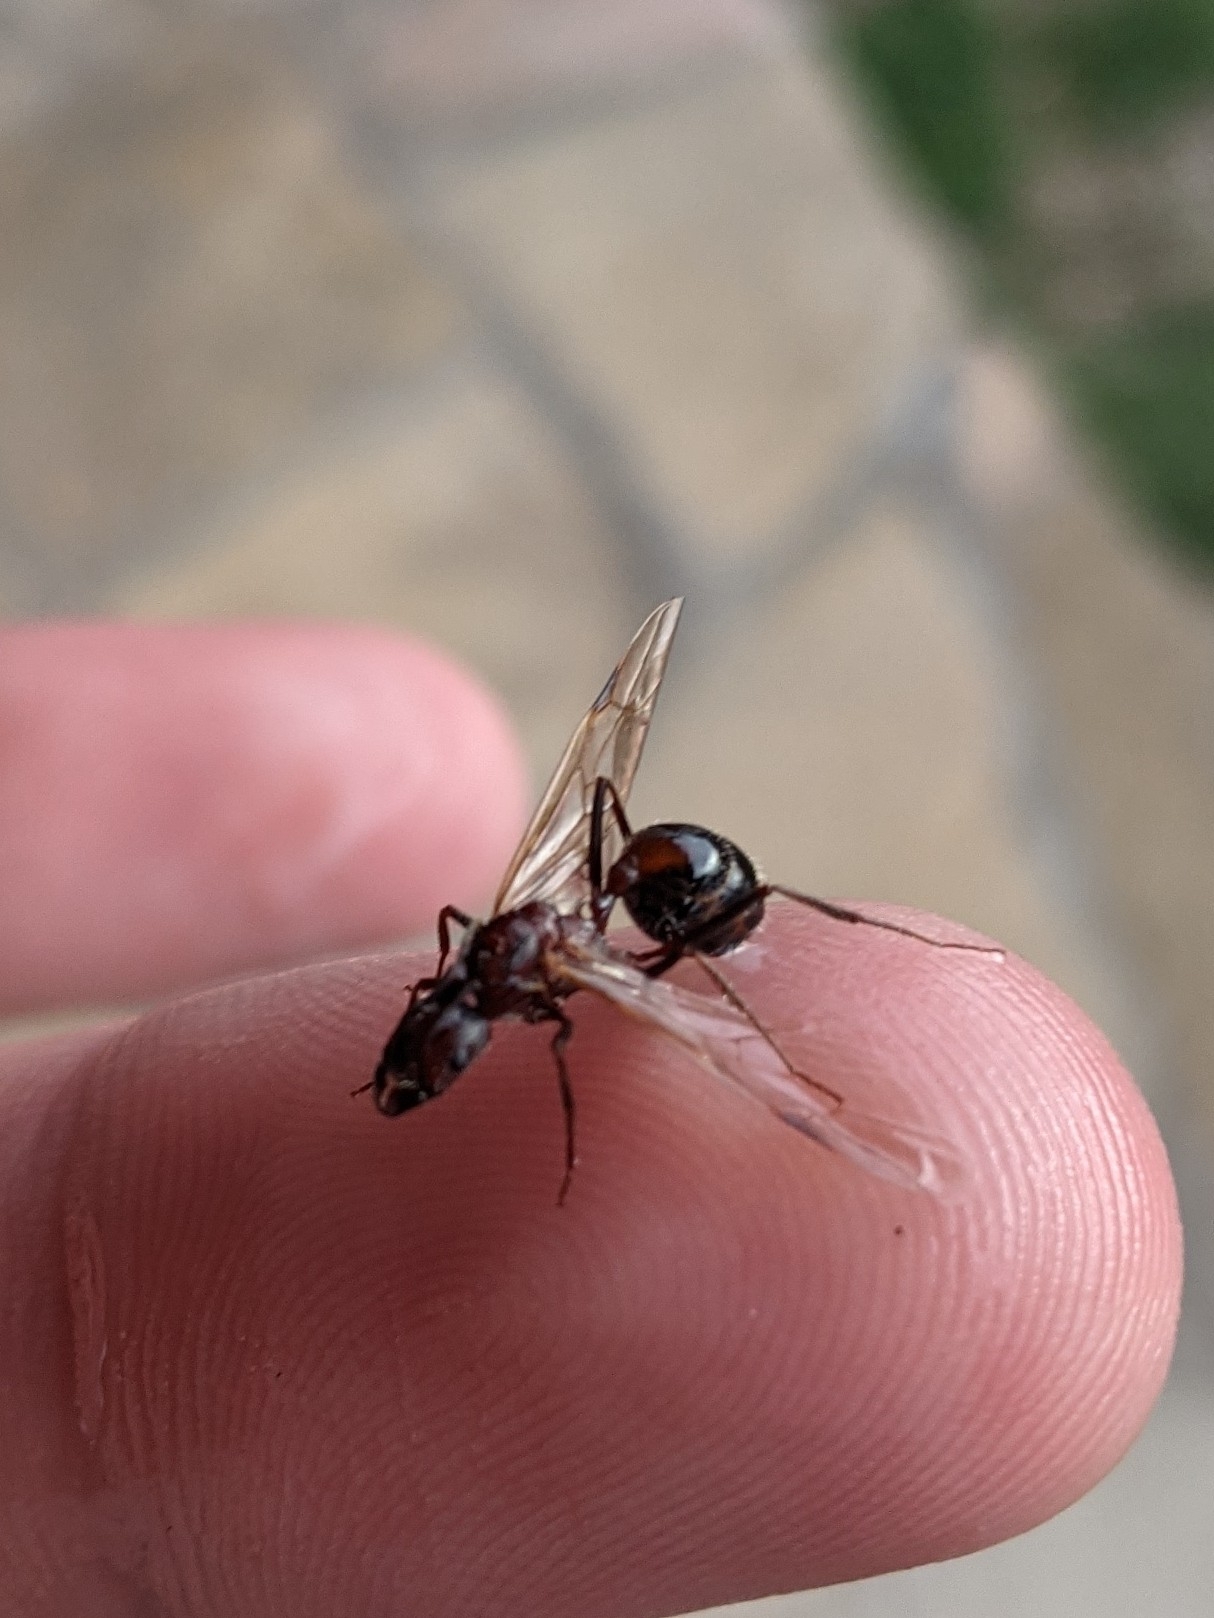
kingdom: Animalia
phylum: Arthropoda
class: Insecta
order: Hymenoptera
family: Formicidae
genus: Novomessor
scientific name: Novomessor cockerelli
